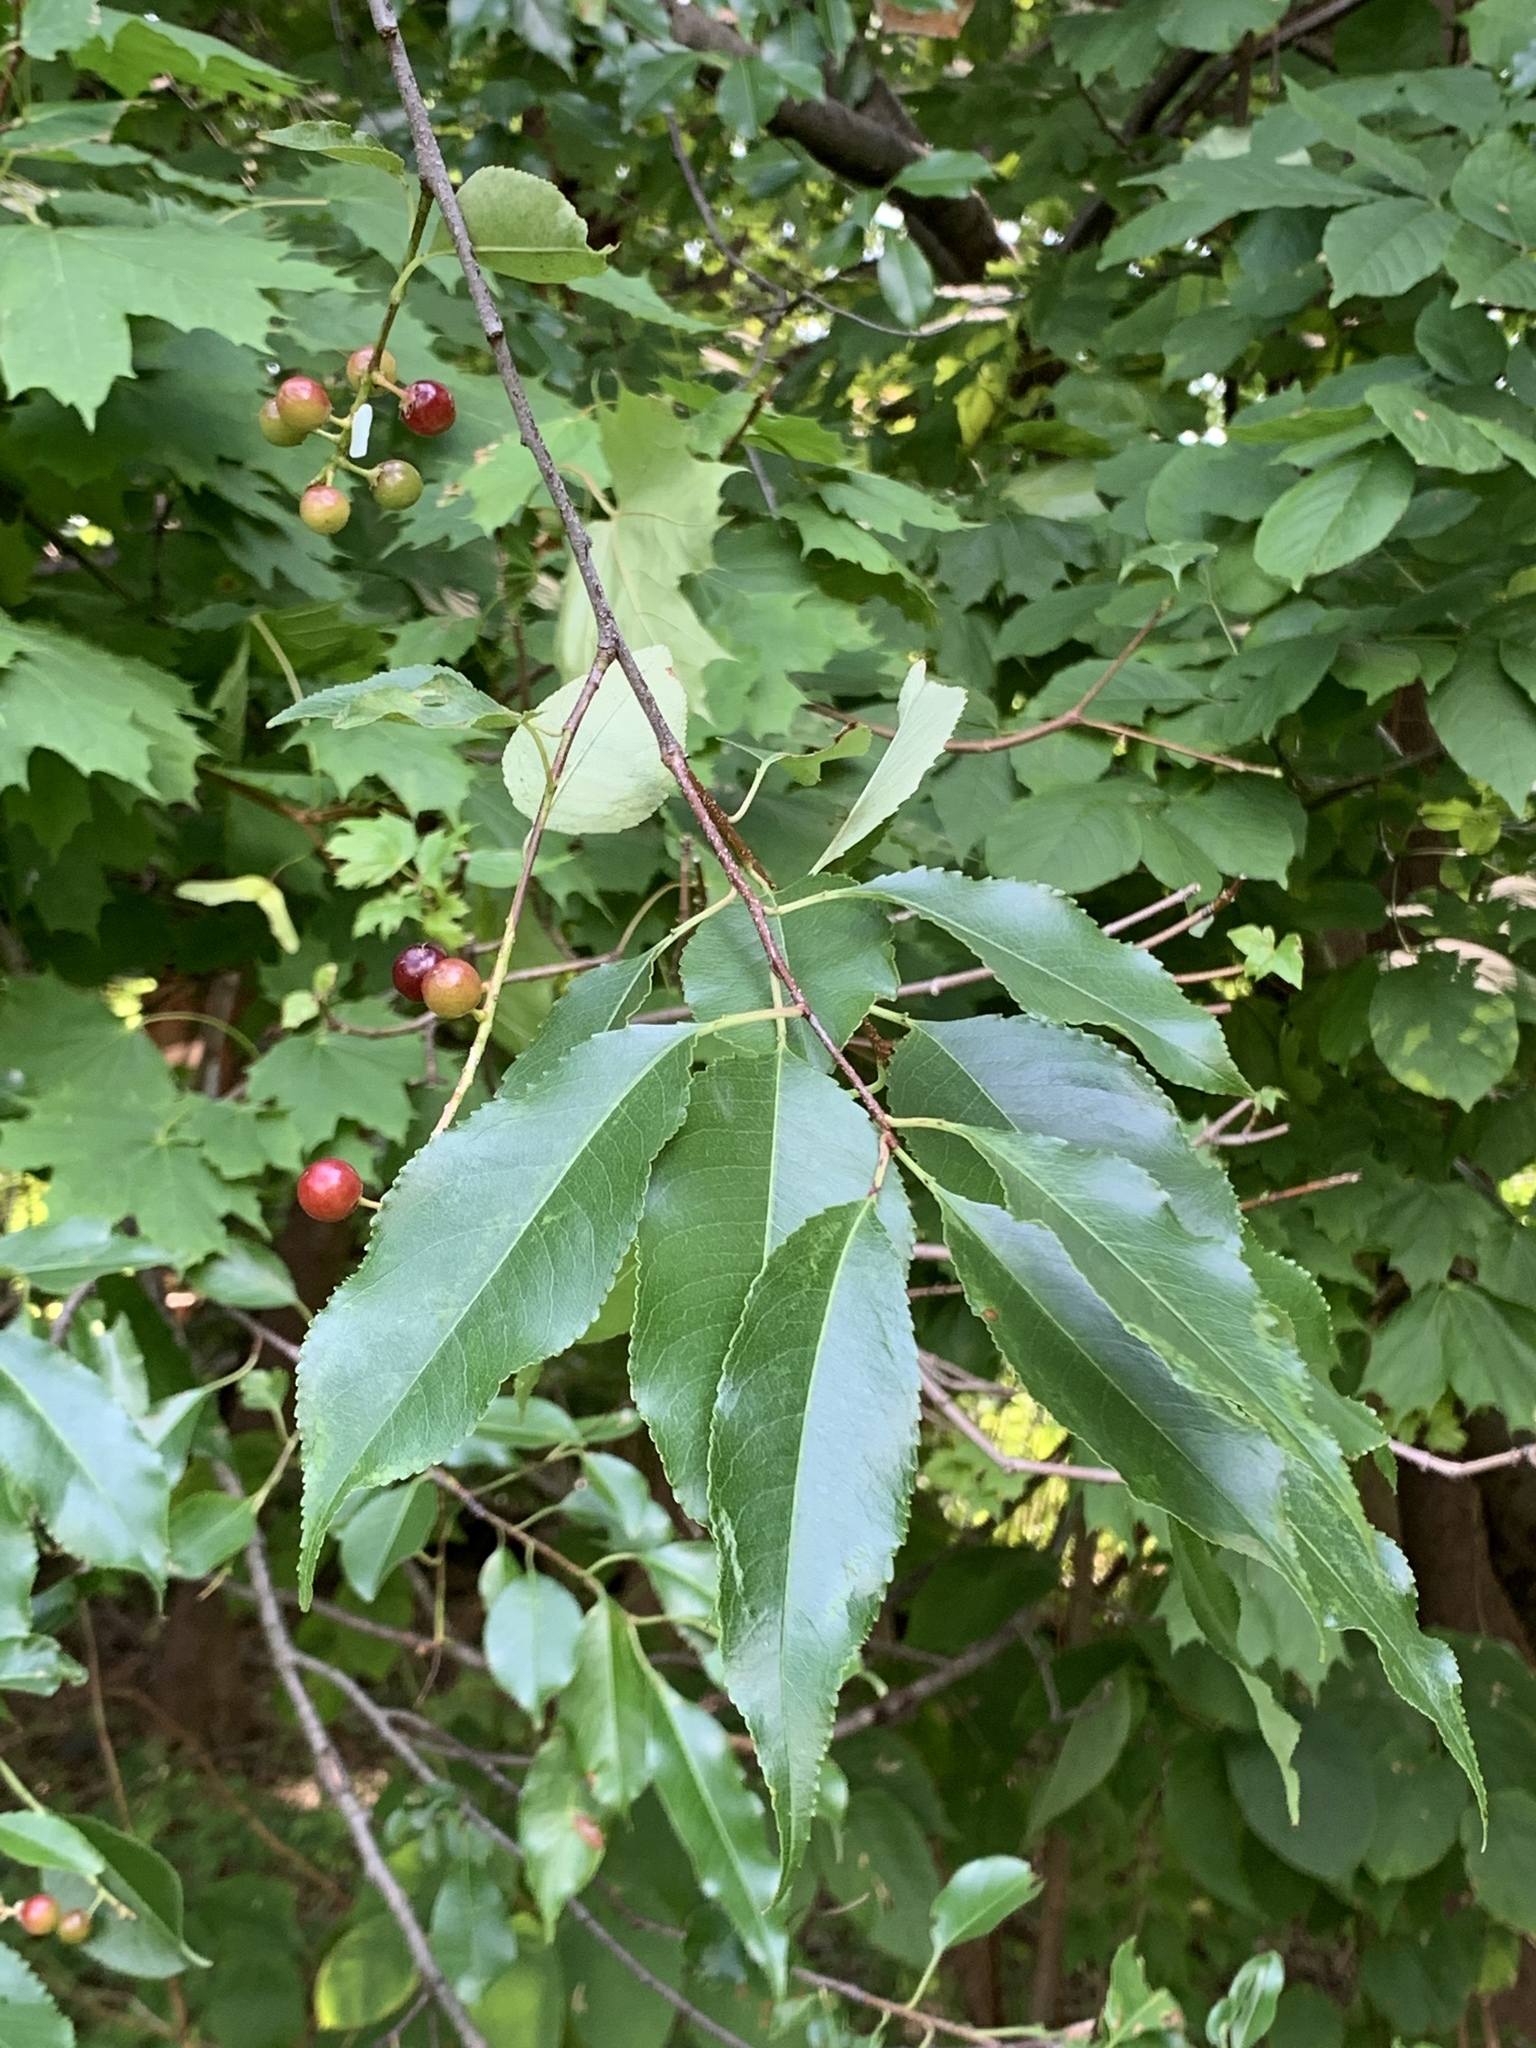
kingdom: Plantae
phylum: Tracheophyta
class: Magnoliopsida
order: Rosales
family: Rosaceae
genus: Prunus
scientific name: Prunus serotina
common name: Black cherry
